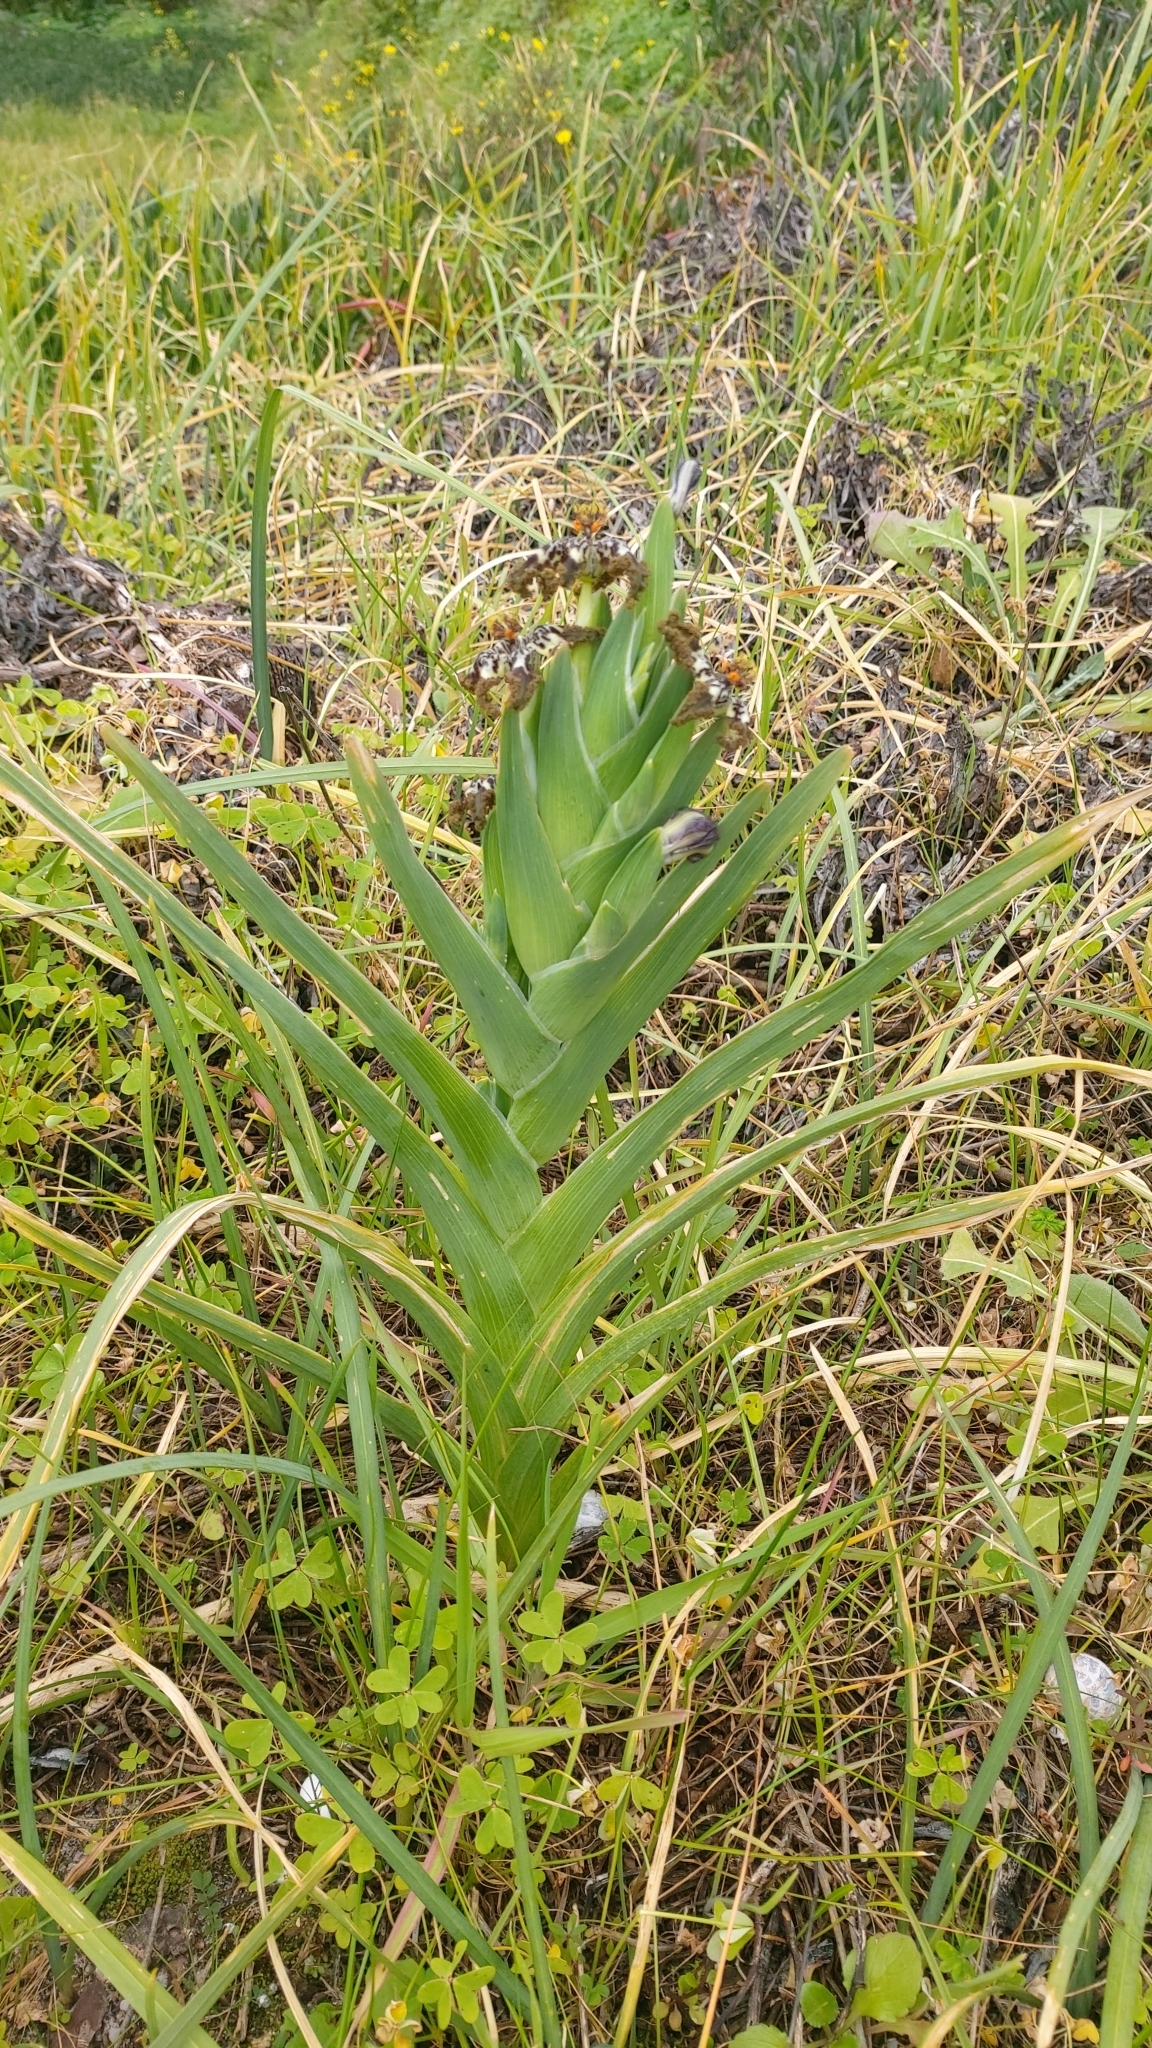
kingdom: Plantae
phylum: Tracheophyta
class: Liliopsida
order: Asparagales
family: Iridaceae
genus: Ferraria
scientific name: Ferraria crispa
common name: Black-flag
